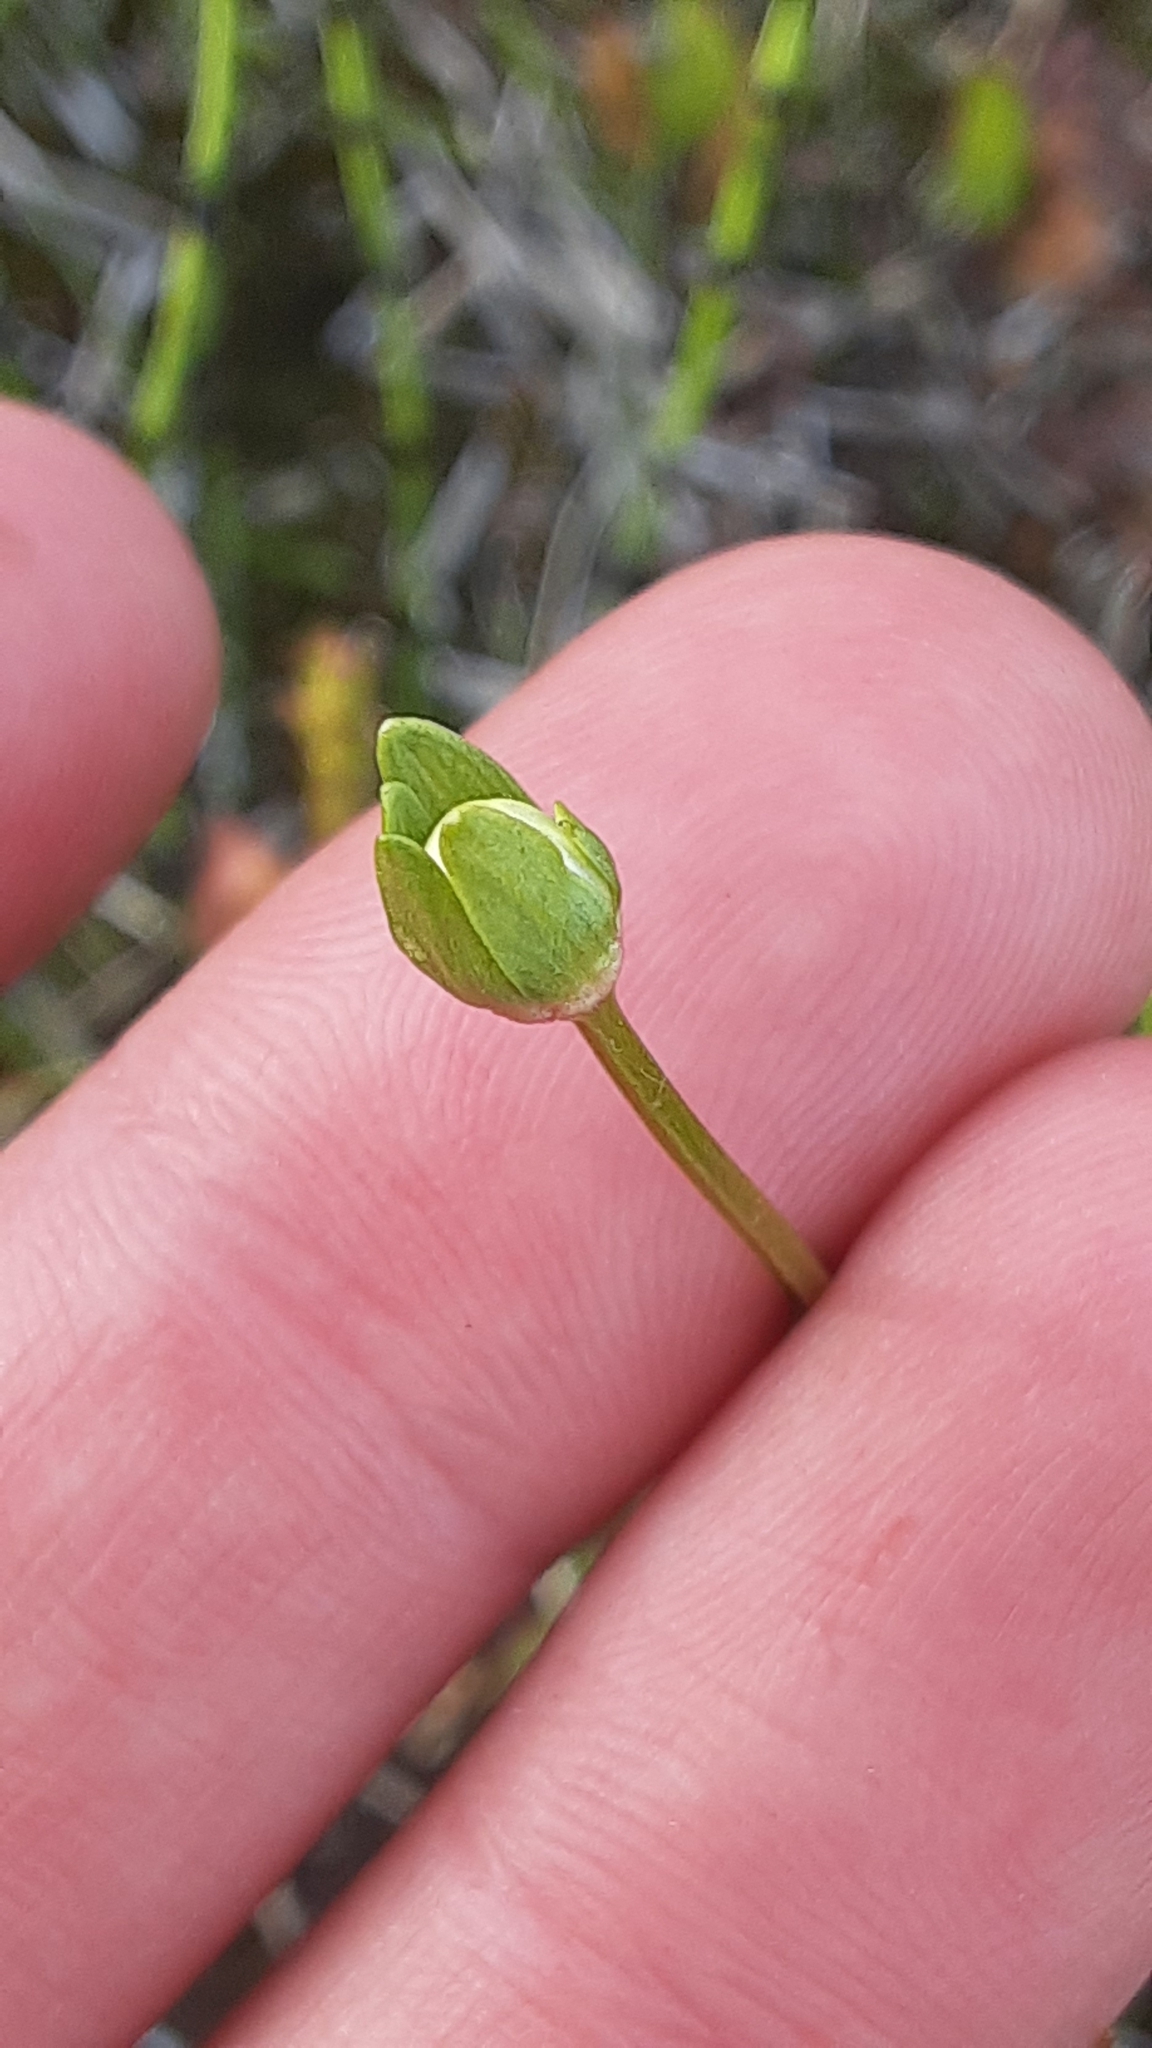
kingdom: Plantae
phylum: Tracheophyta
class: Magnoliopsida
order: Celastrales
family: Parnassiaceae
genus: Parnassia
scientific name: Parnassia palustris
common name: Grass-of-parnassus
